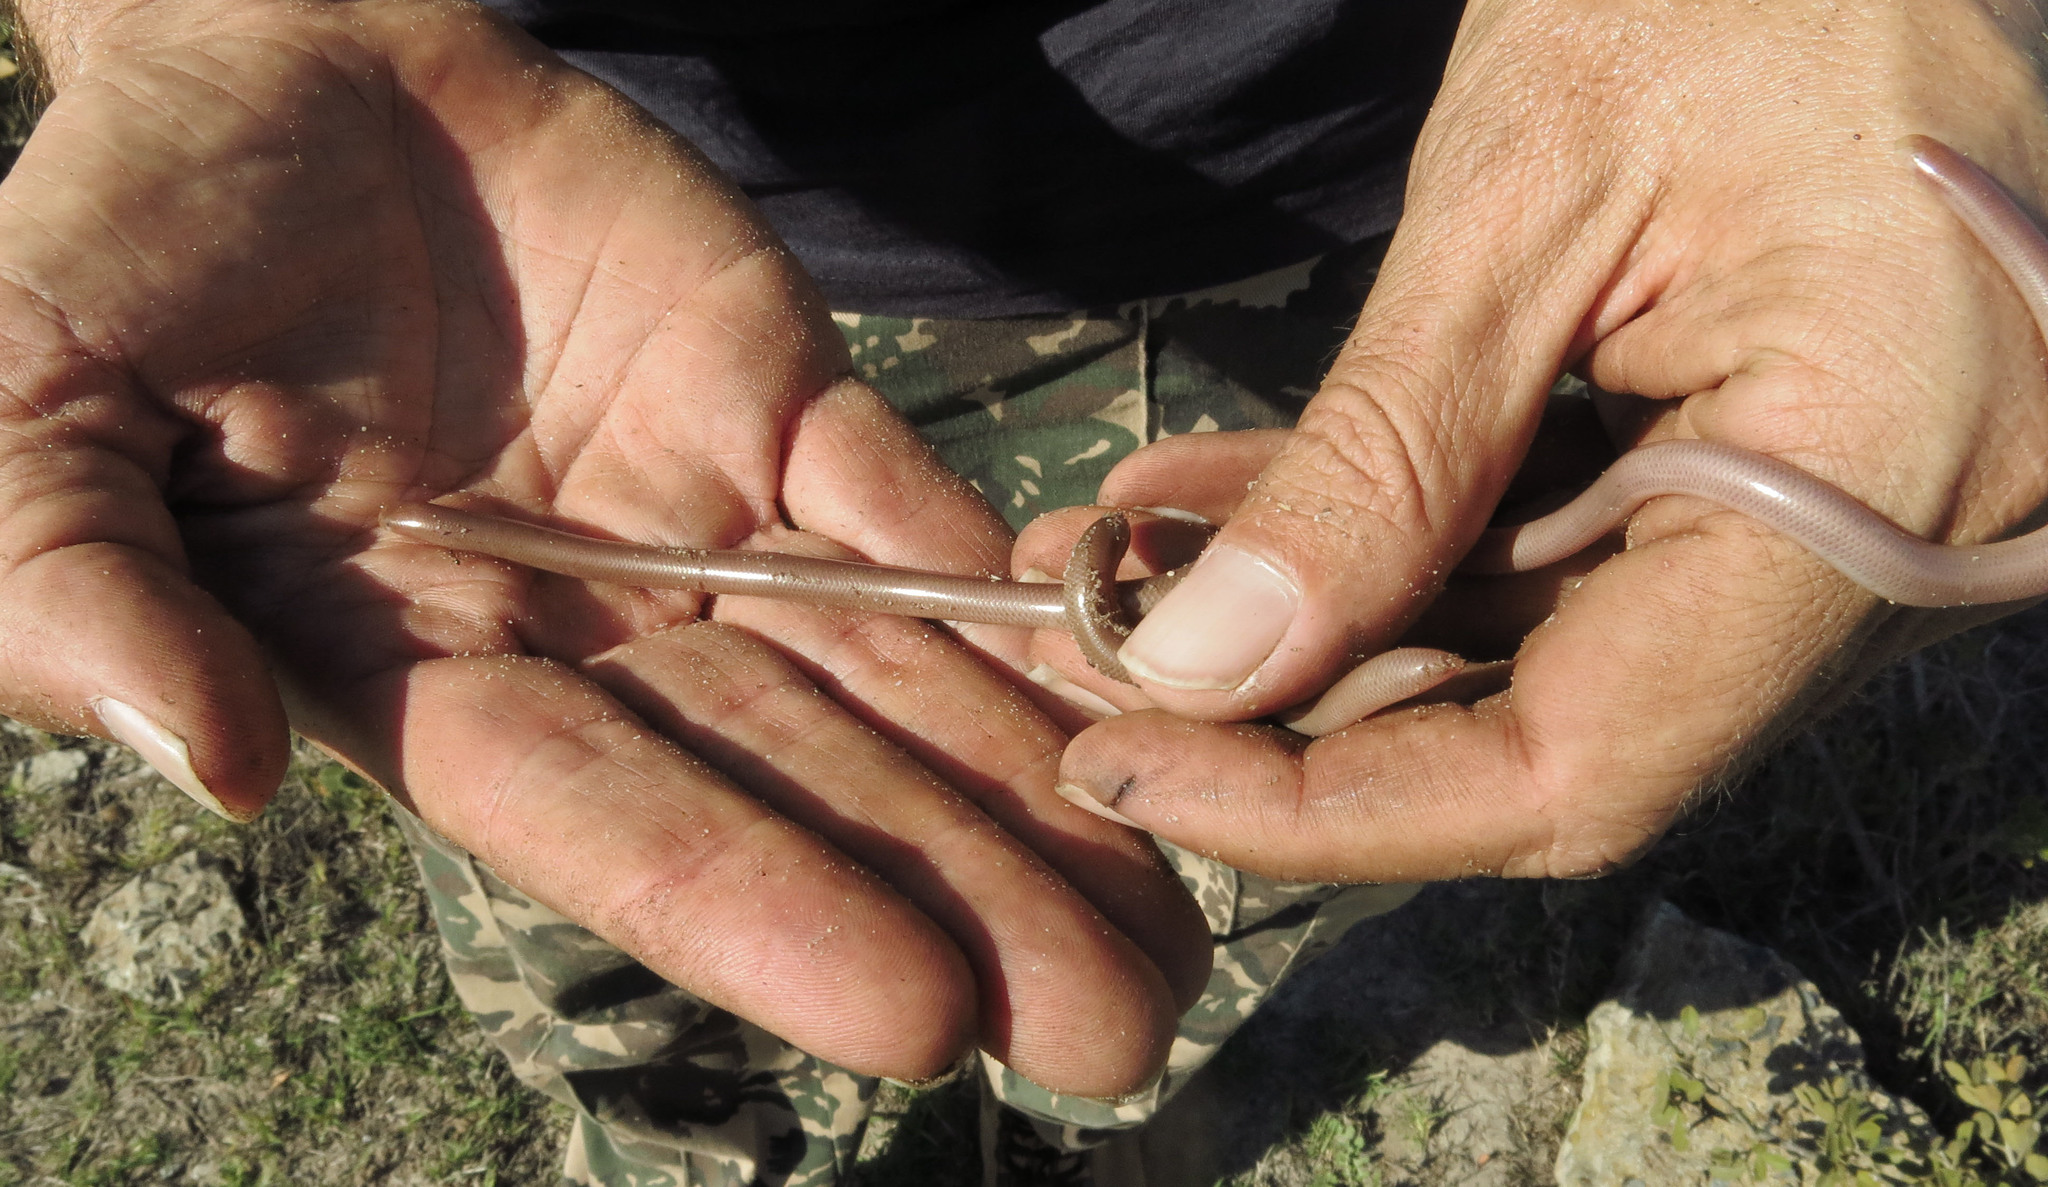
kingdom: Animalia
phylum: Chordata
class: Squamata
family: Typhlopidae
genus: Rhinotyphlops
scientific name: Rhinotyphlops lalandei
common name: Delalande's beaked blind snake
